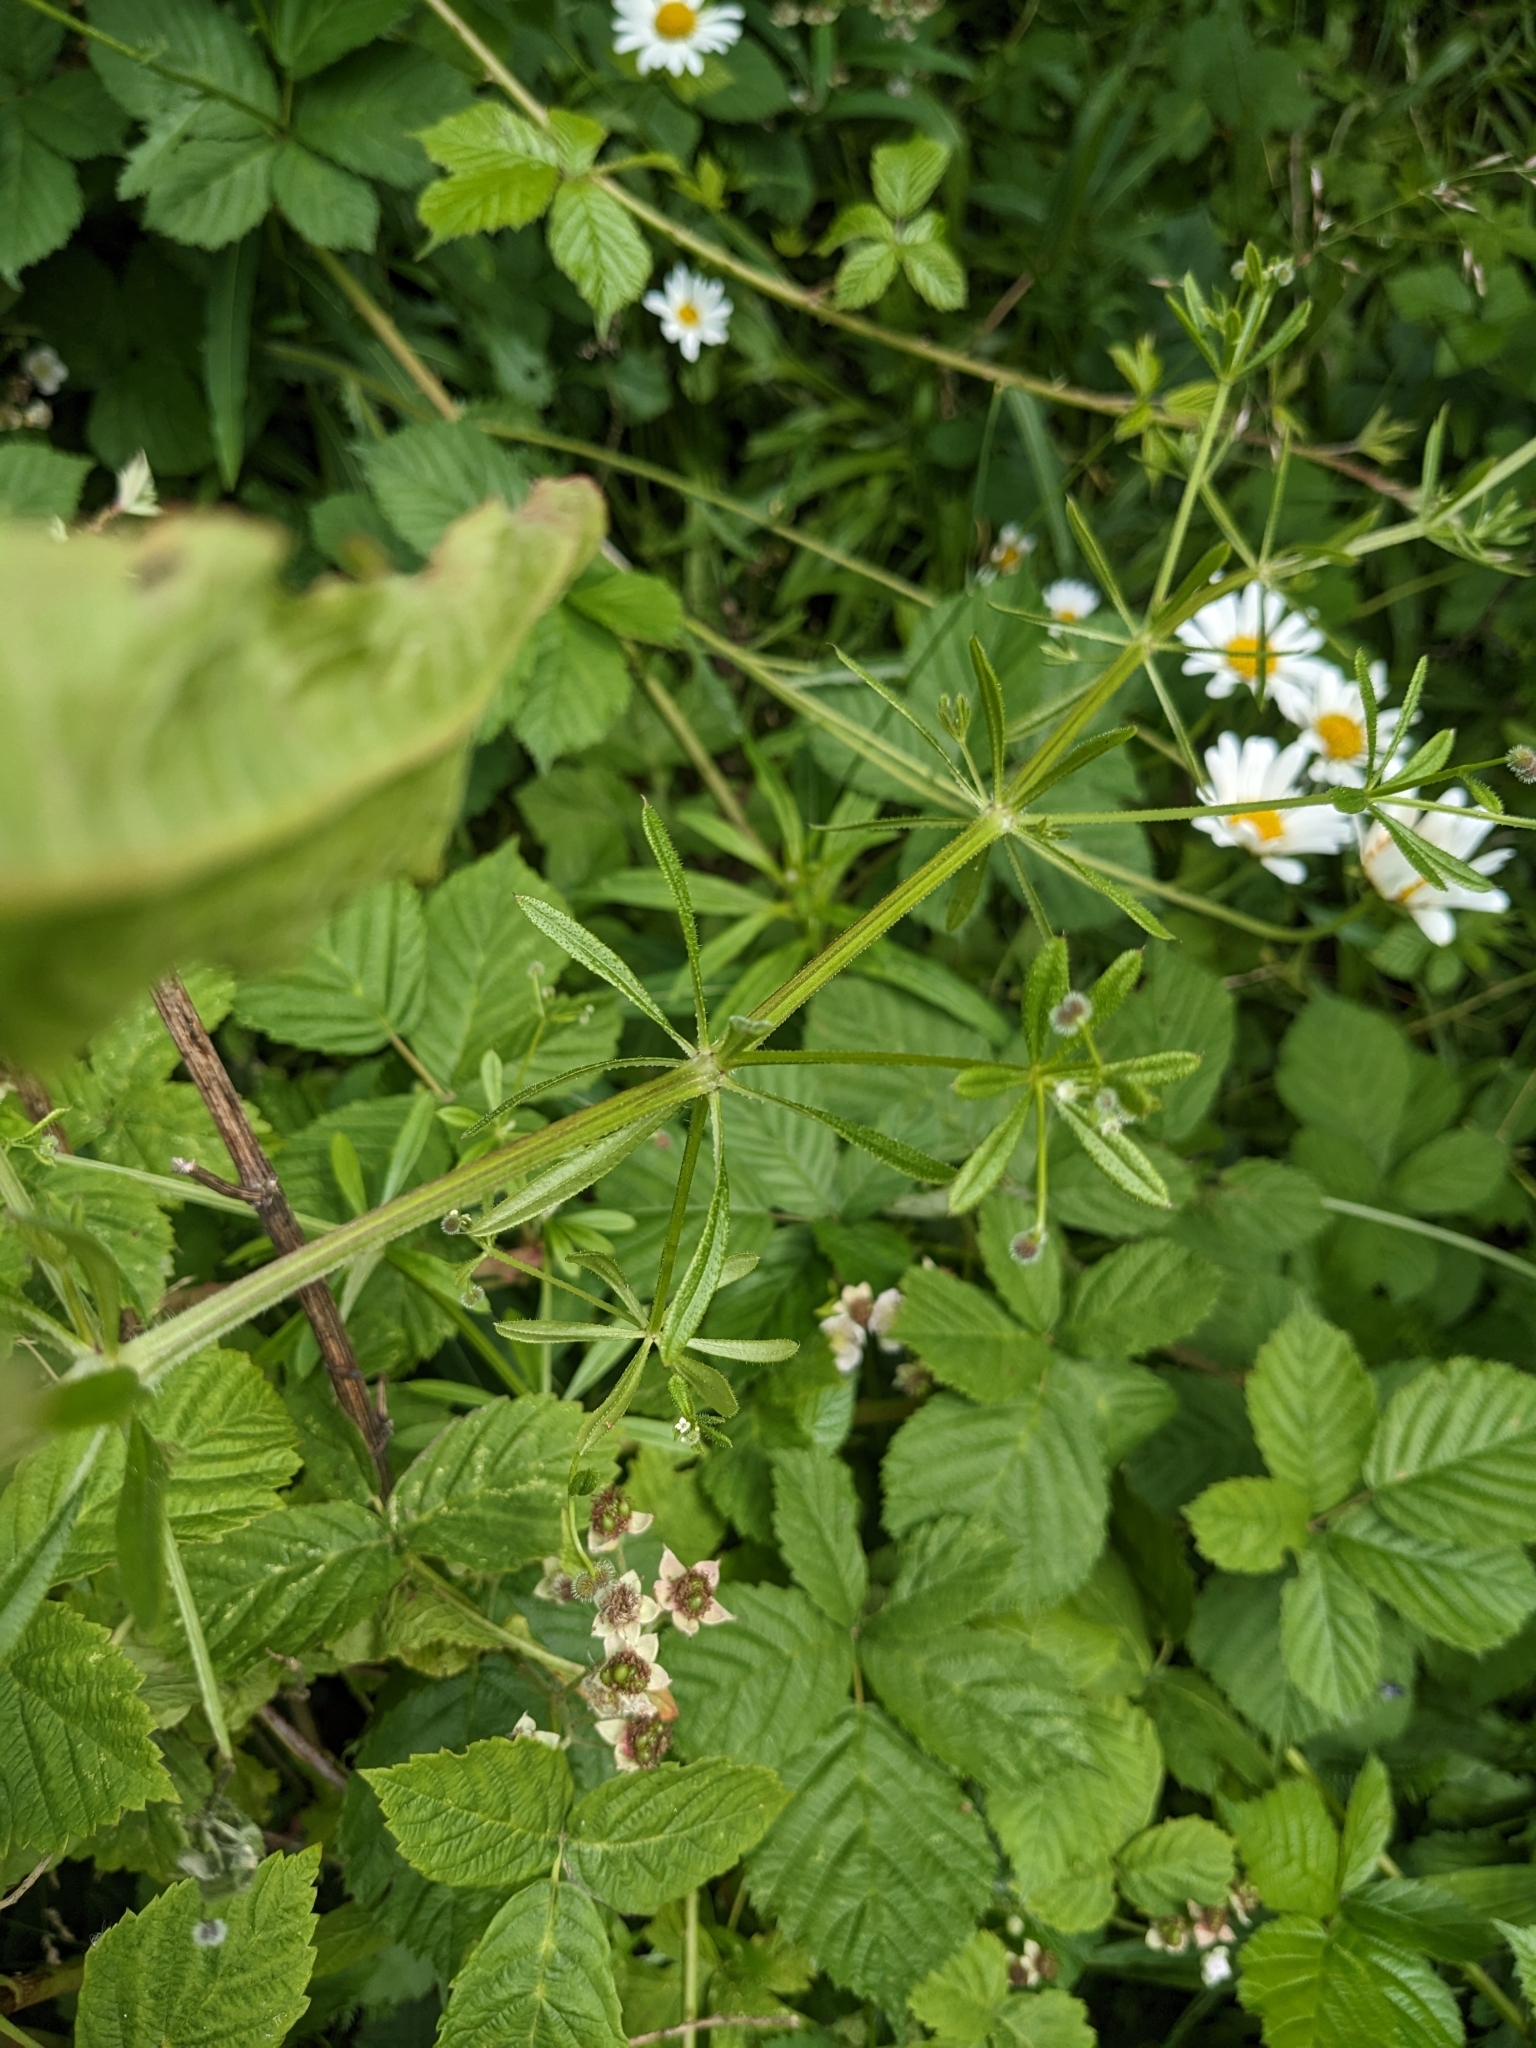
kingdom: Plantae
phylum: Tracheophyta
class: Magnoliopsida
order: Gentianales
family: Rubiaceae
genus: Galium
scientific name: Galium aparine
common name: Cleavers
